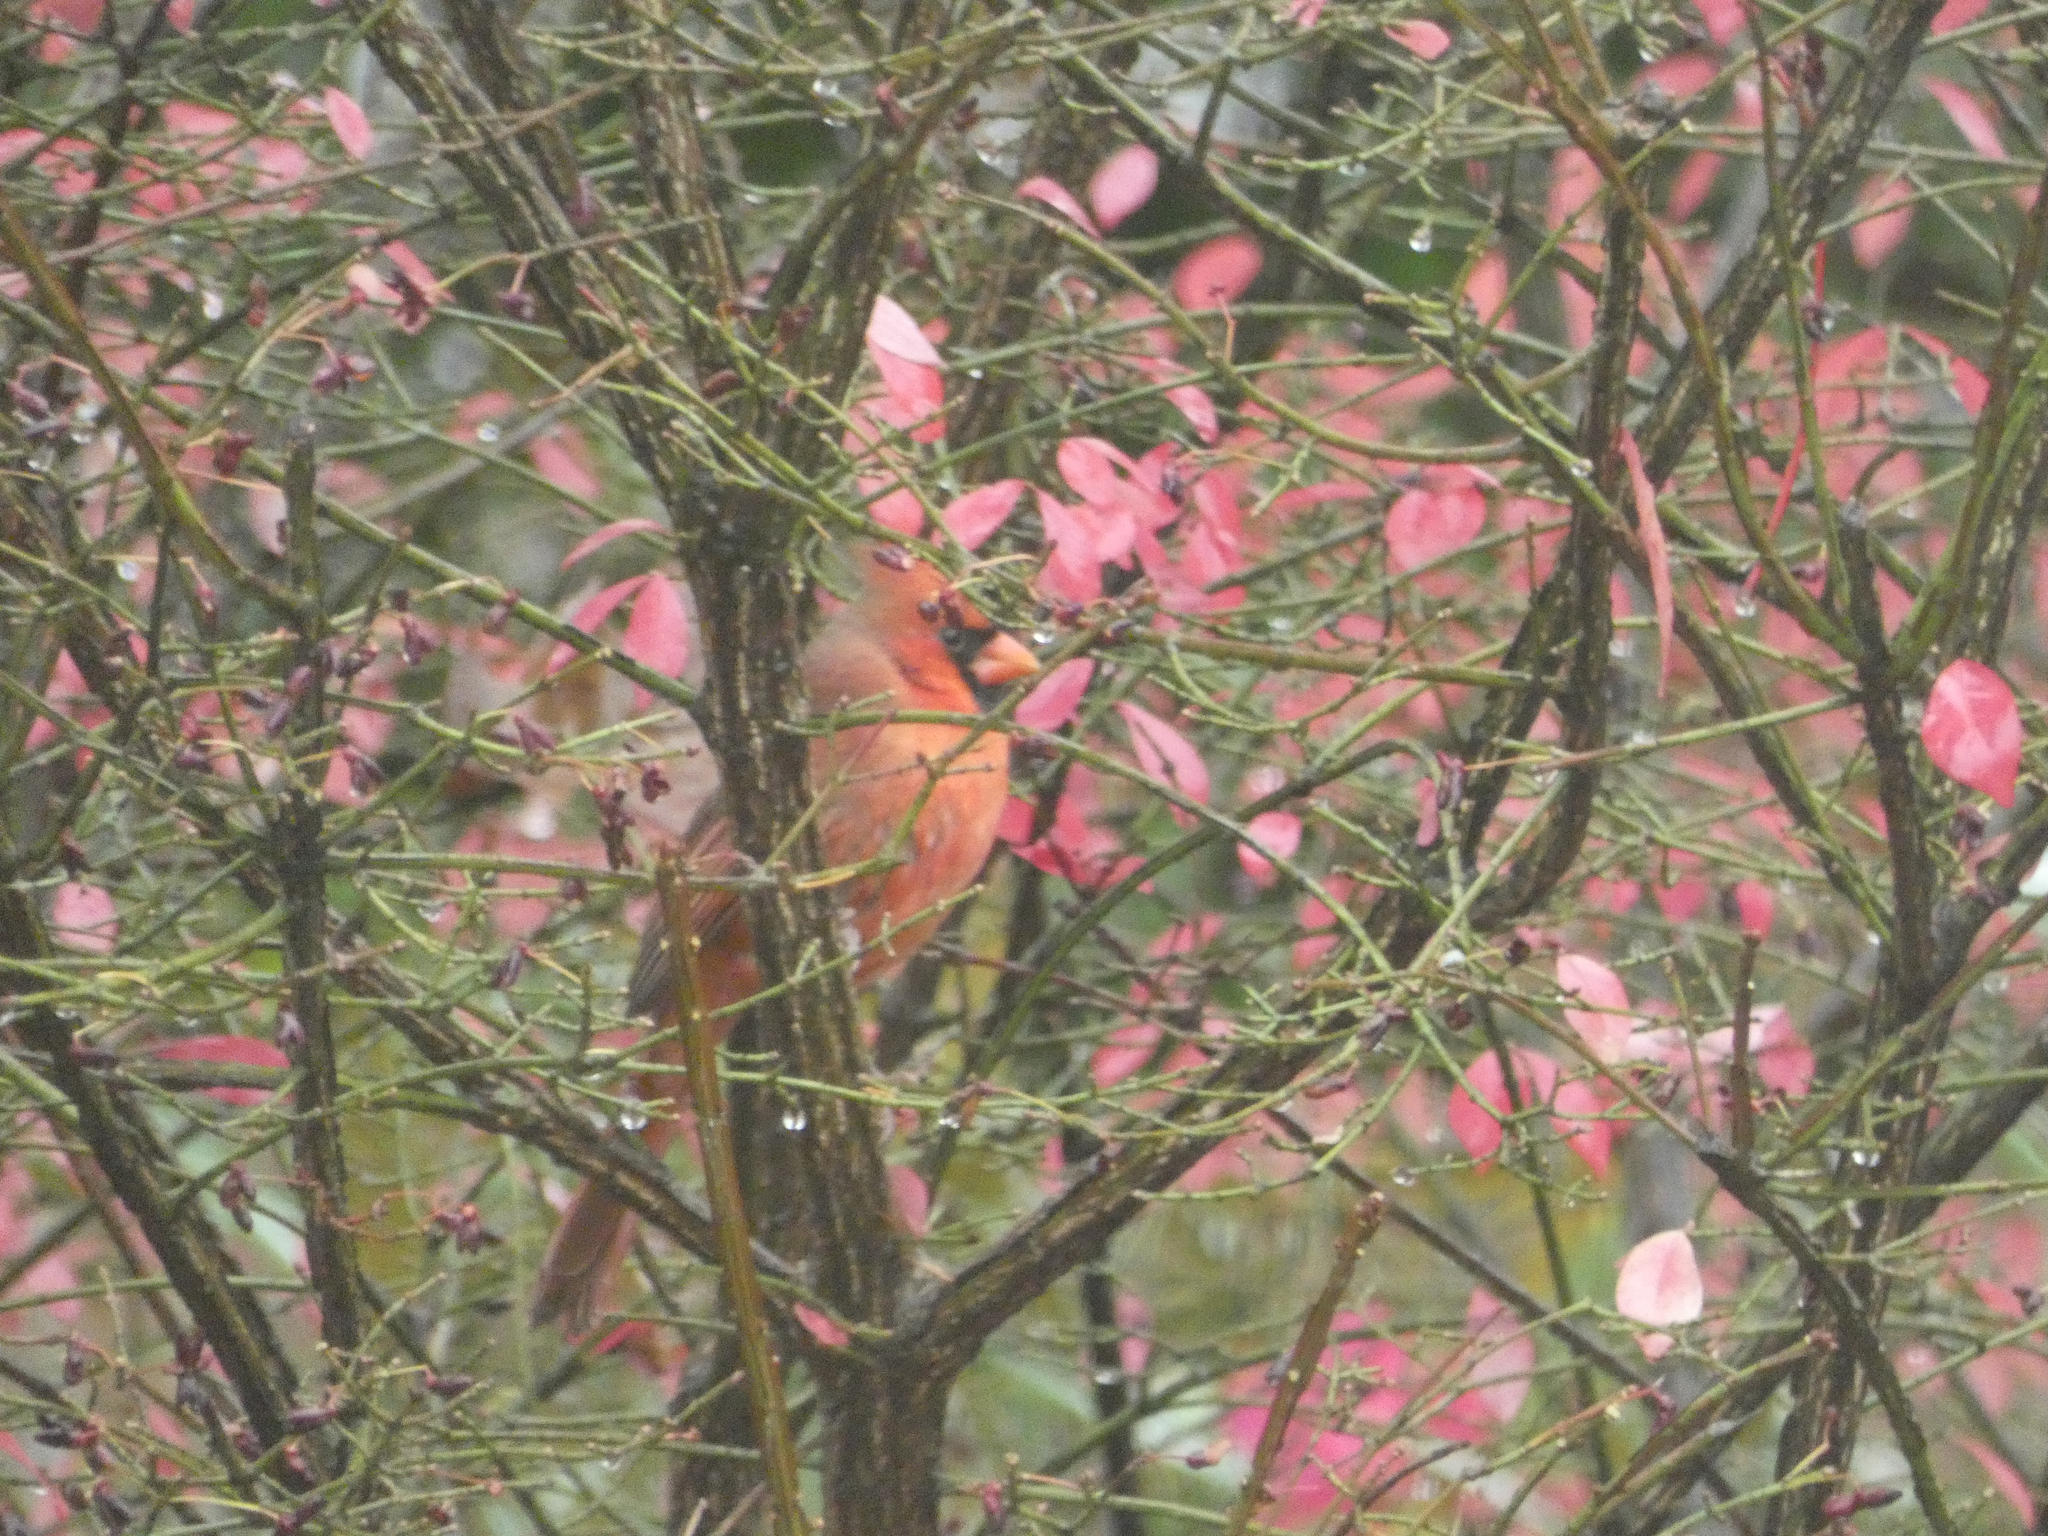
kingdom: Animalia
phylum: Chordata
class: Aves
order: Passeriformes
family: Cardinalidae
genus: Cardinalis
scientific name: Cardinalis cardinalis
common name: Northern cardinal
